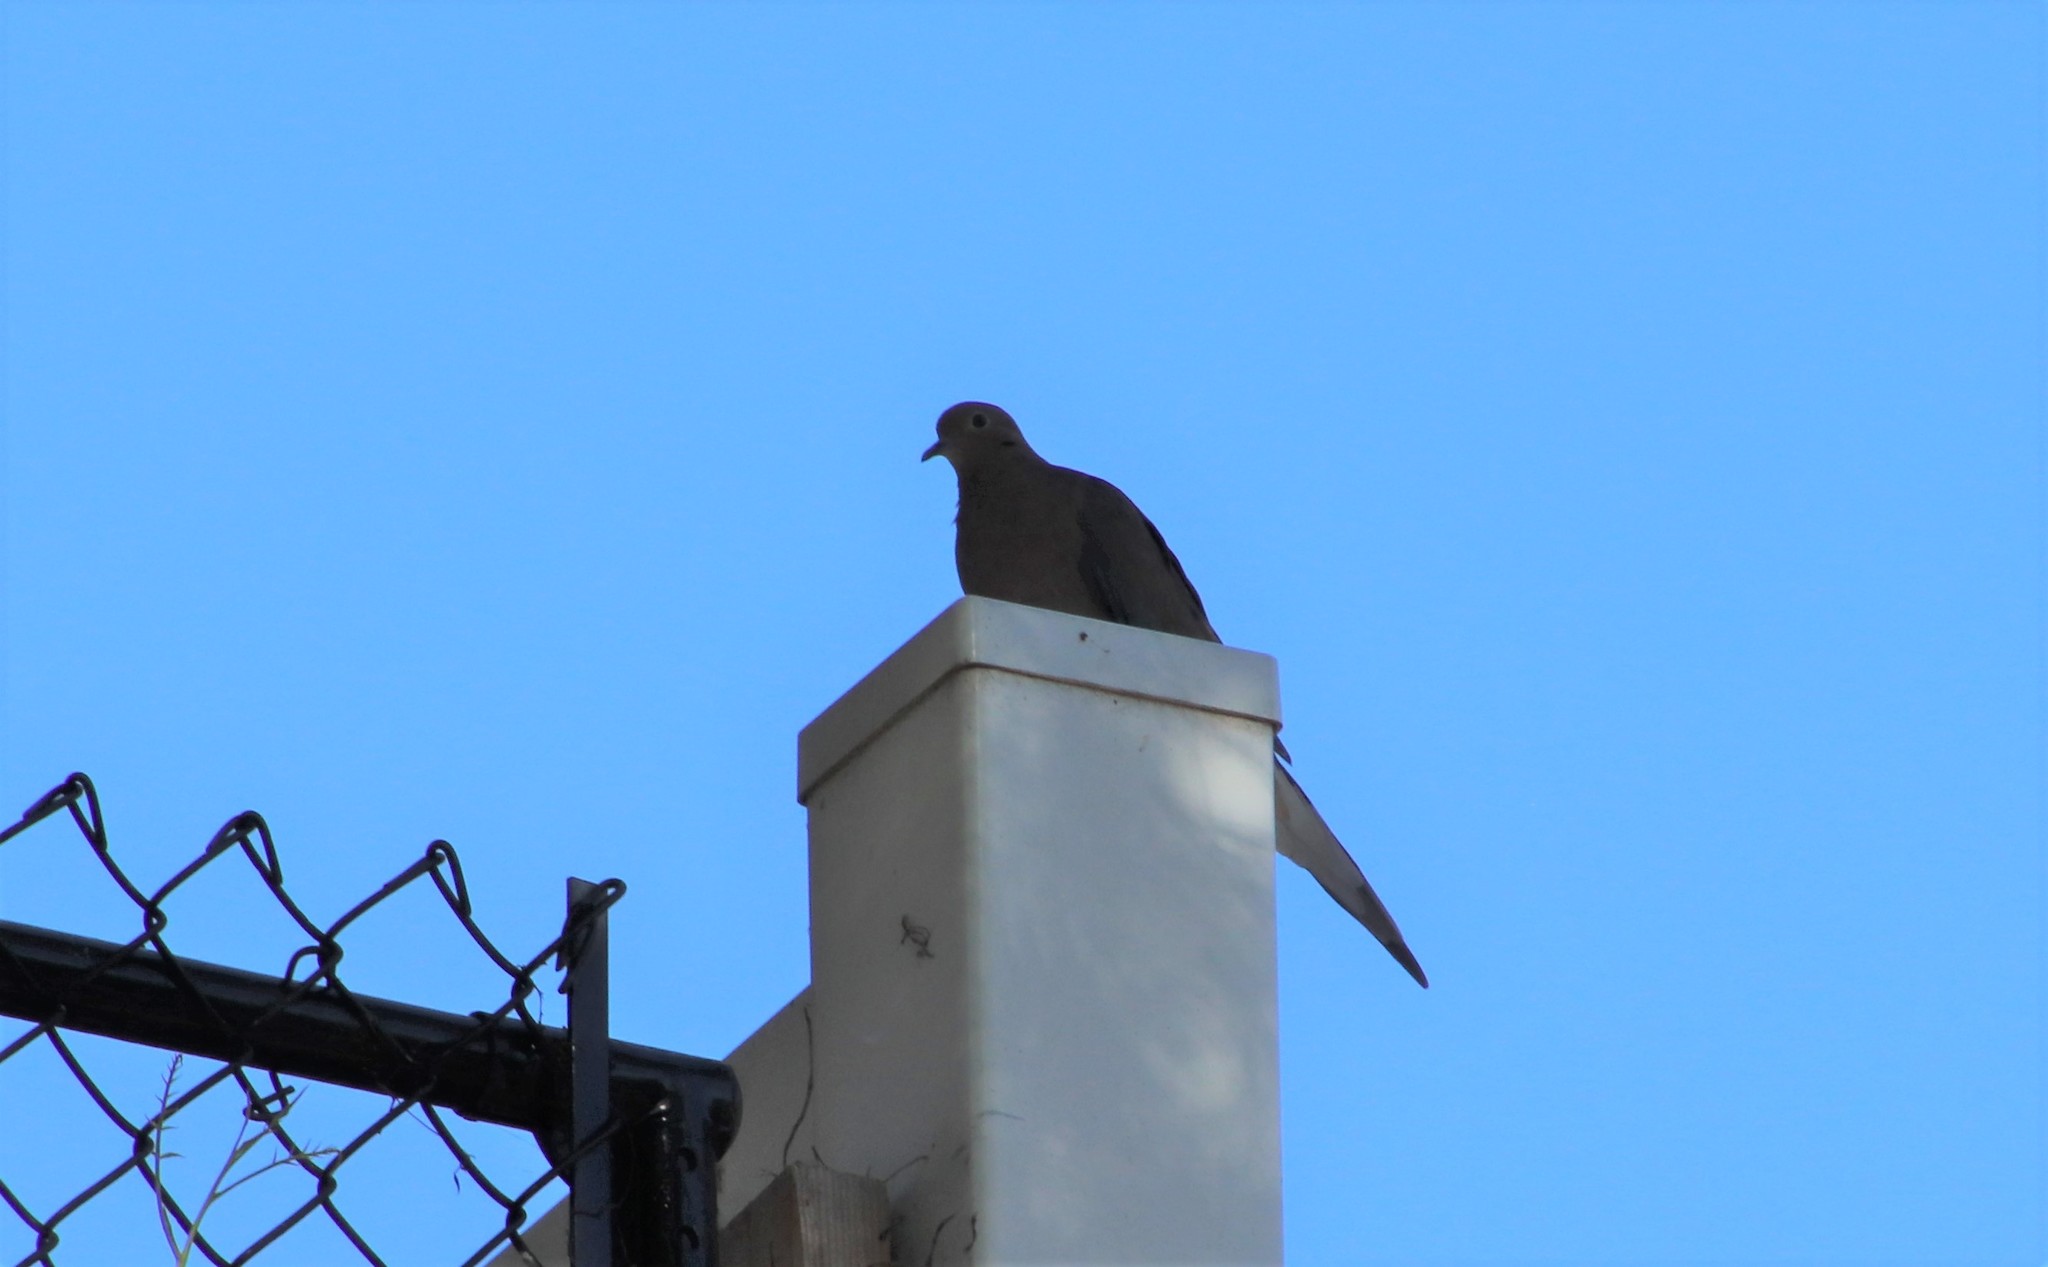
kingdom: Animalia
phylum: Chordata
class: Aves
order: Columbiformes
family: Columbidae
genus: Zenaida
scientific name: Zenaida macroura
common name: Mourning dove
